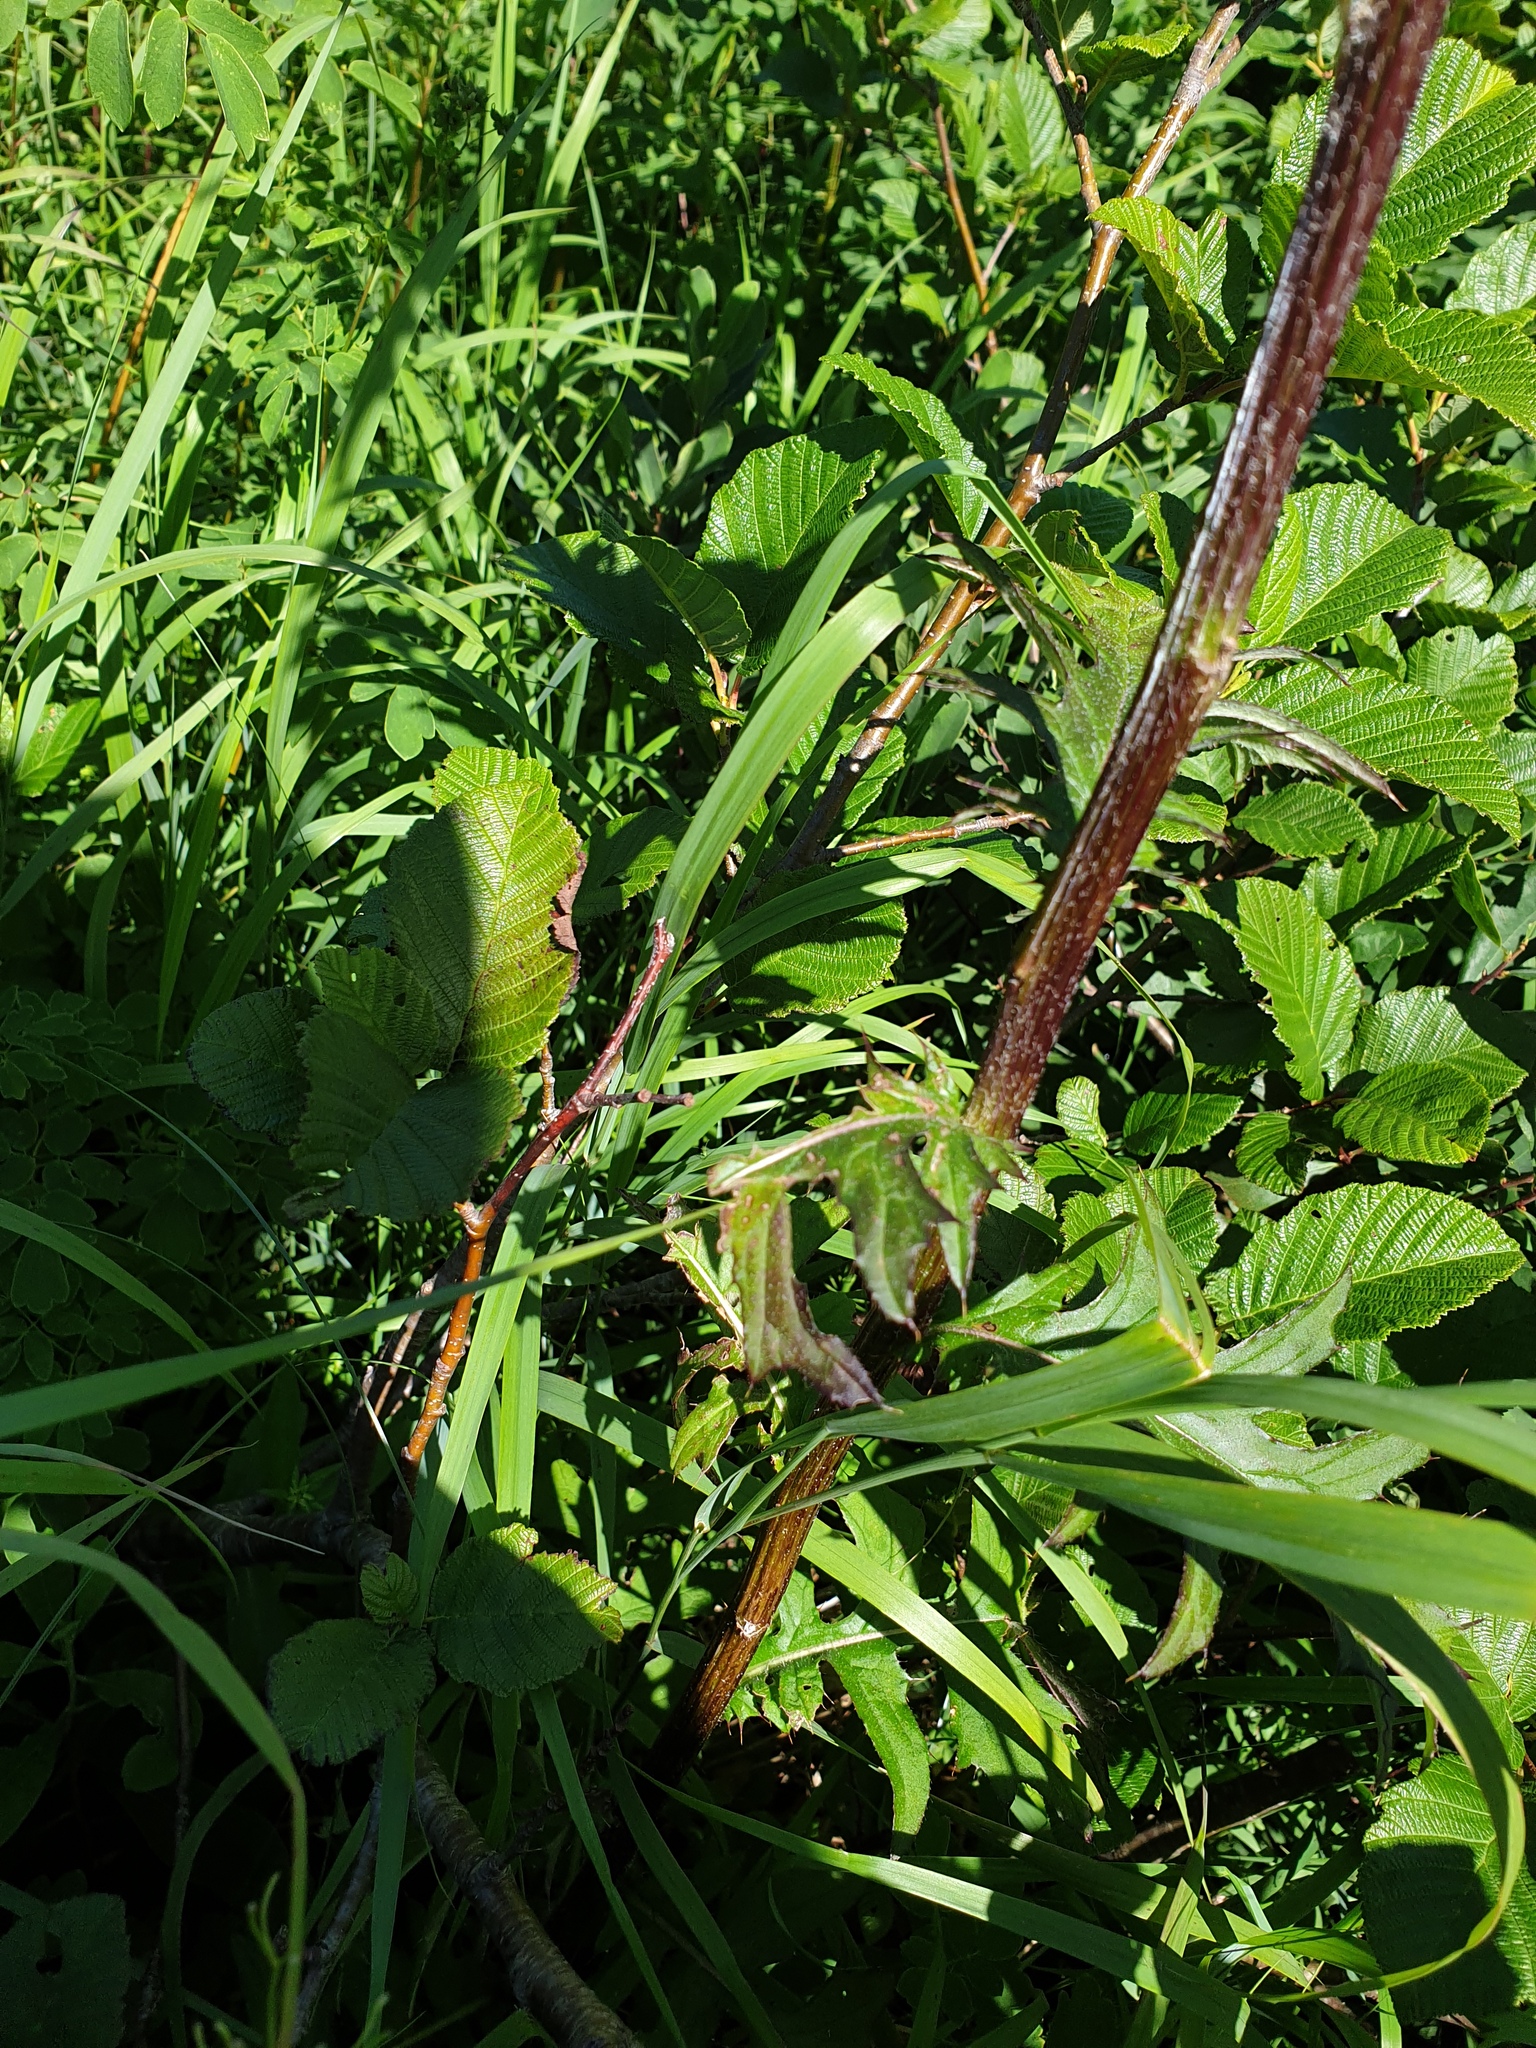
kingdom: Plantae
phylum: Tracheophyta
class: Magnoliopsida
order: Asterales
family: Asteraceae
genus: Cirsium
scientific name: Cirsium muticum
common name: Dunce-nettle
